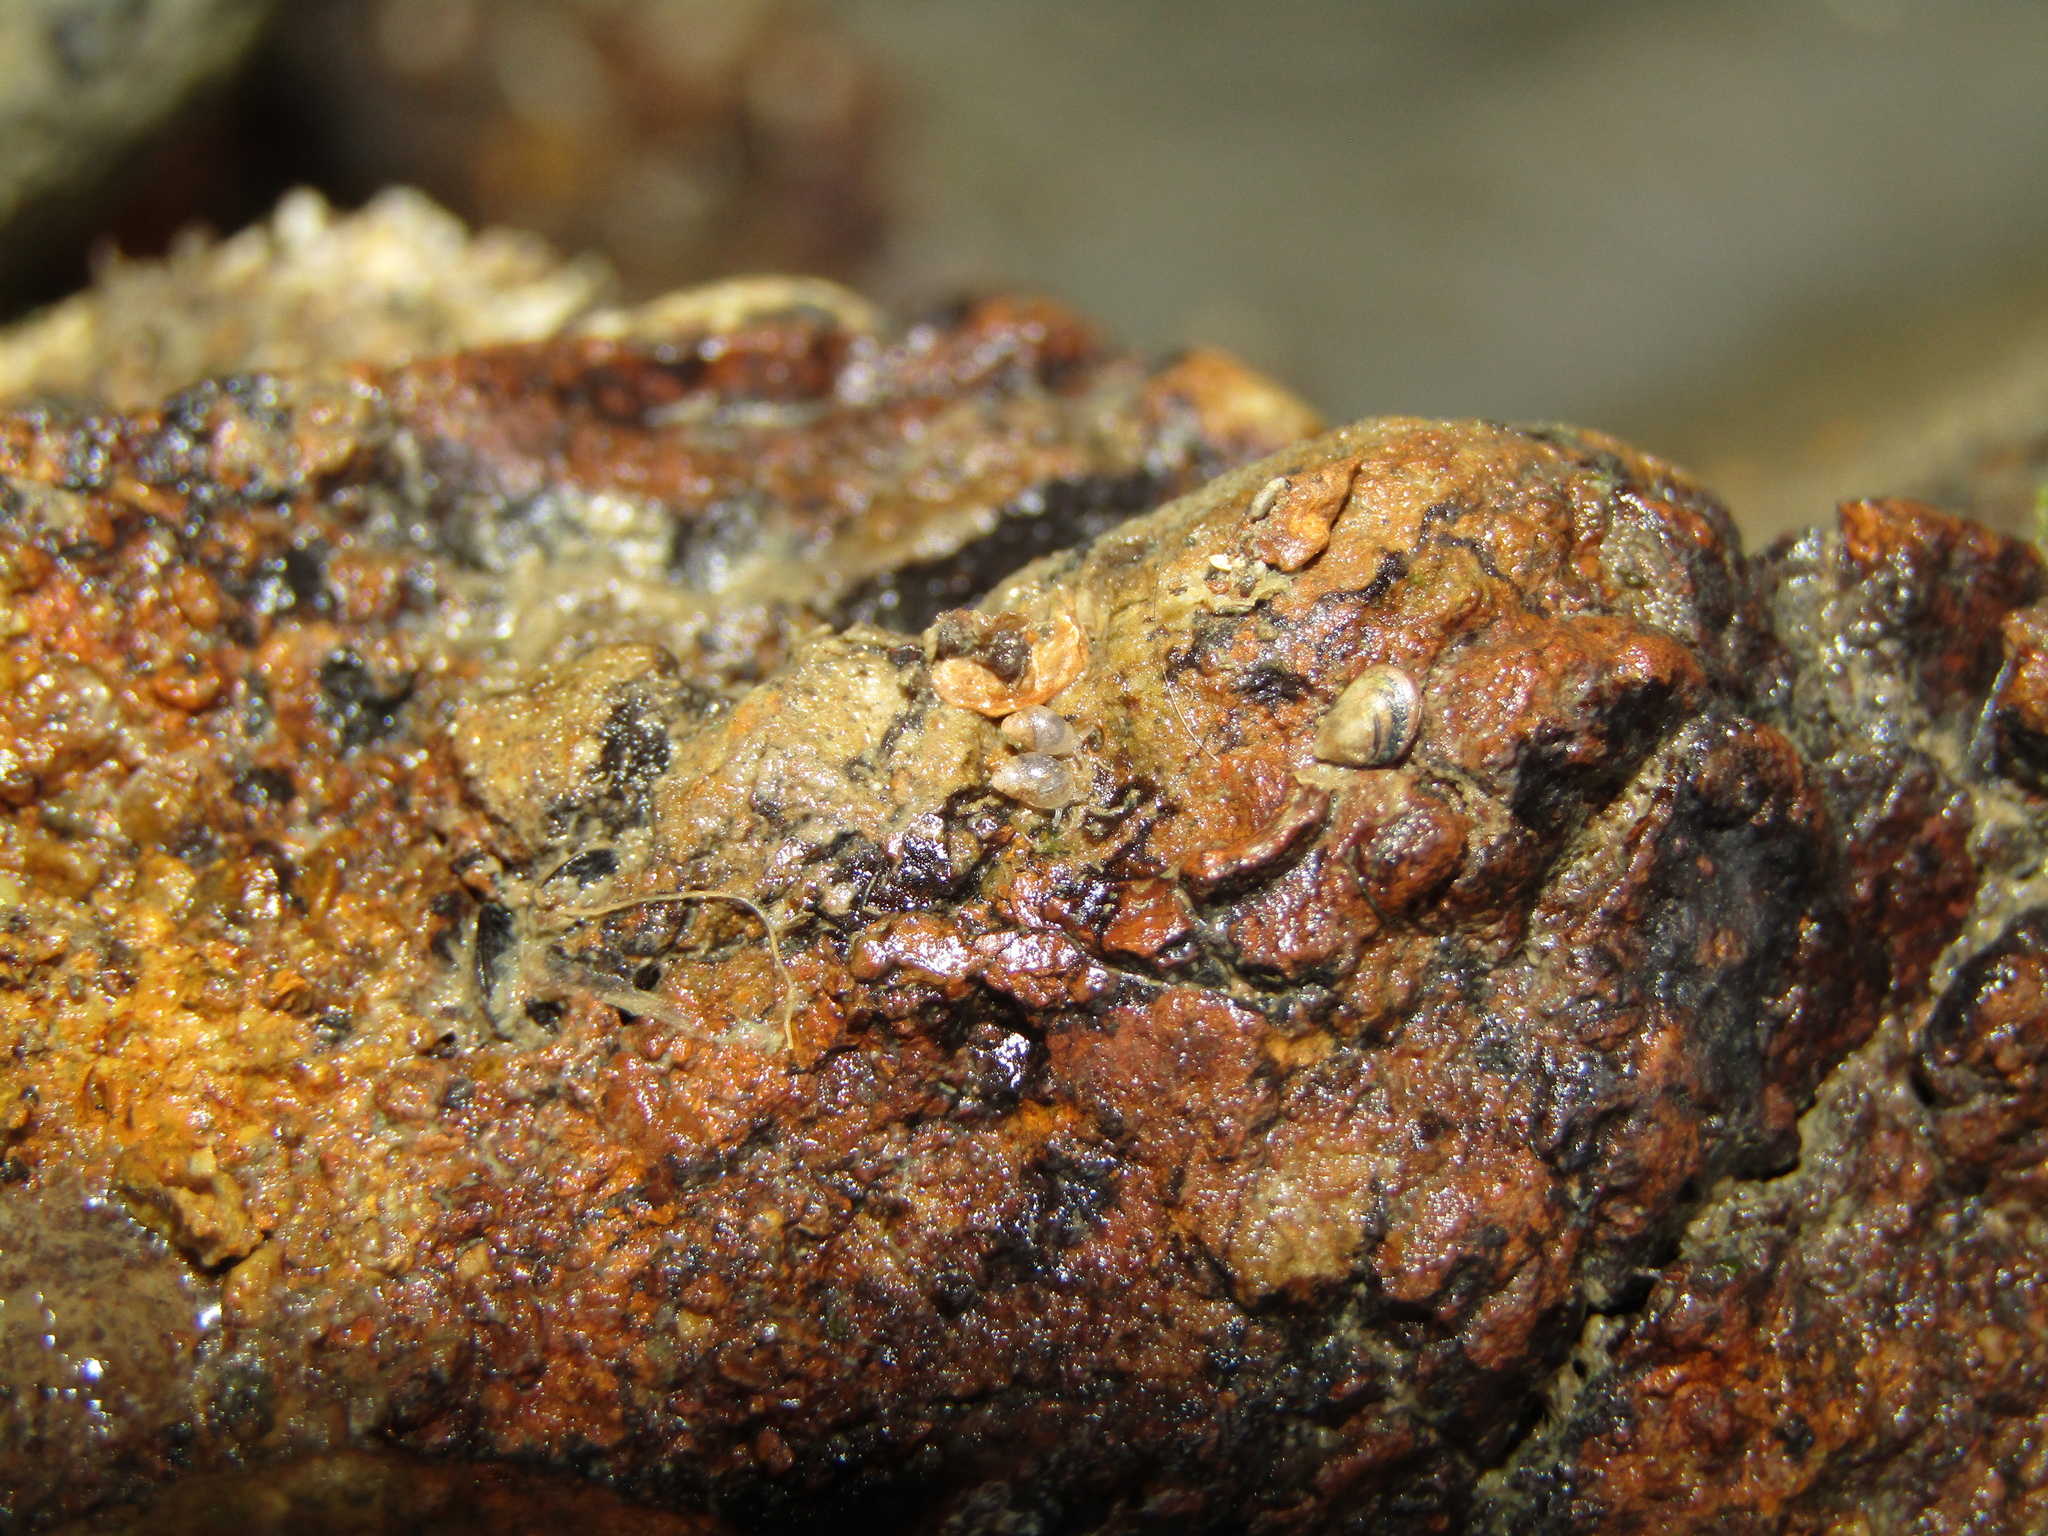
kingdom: Animalia
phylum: Mollusca
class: Gastropoda
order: Ellobiida
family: Ellobiidae
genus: Leuconopsis
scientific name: Leuconopsis obsoleta
